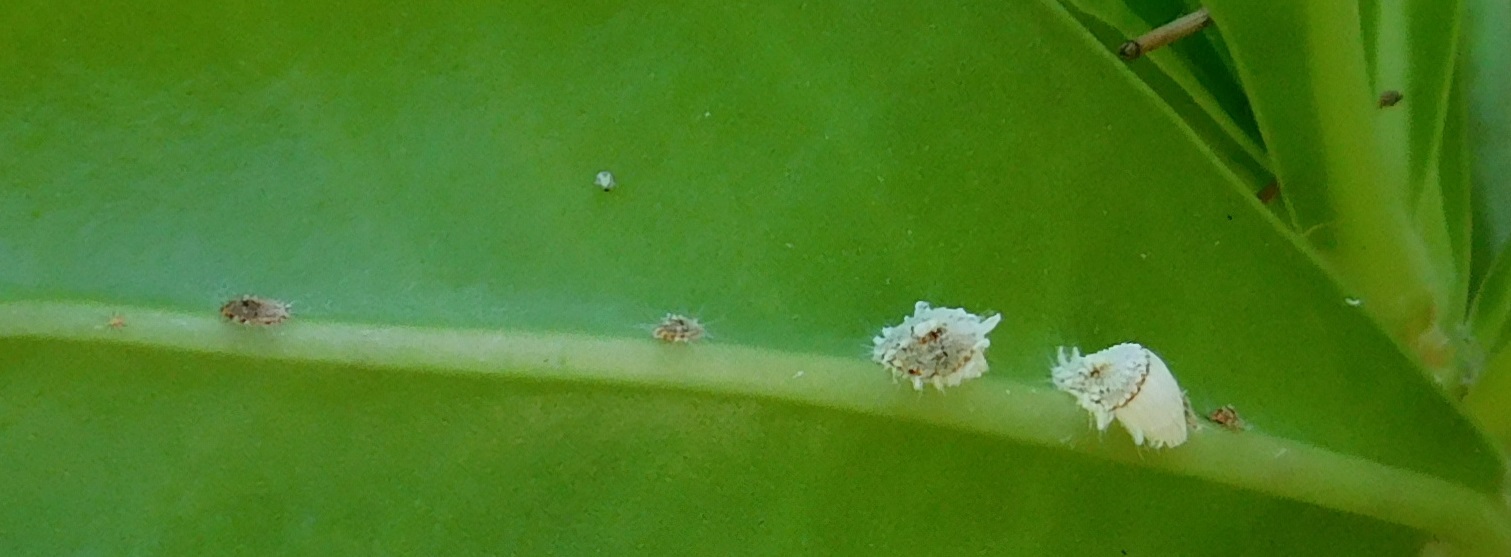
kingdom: Animalia
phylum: Arthropoda
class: Insecta
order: Hemiptera
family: Margarodidae
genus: Icerya
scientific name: Icerya purchasi
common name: Cottony cushion scale
